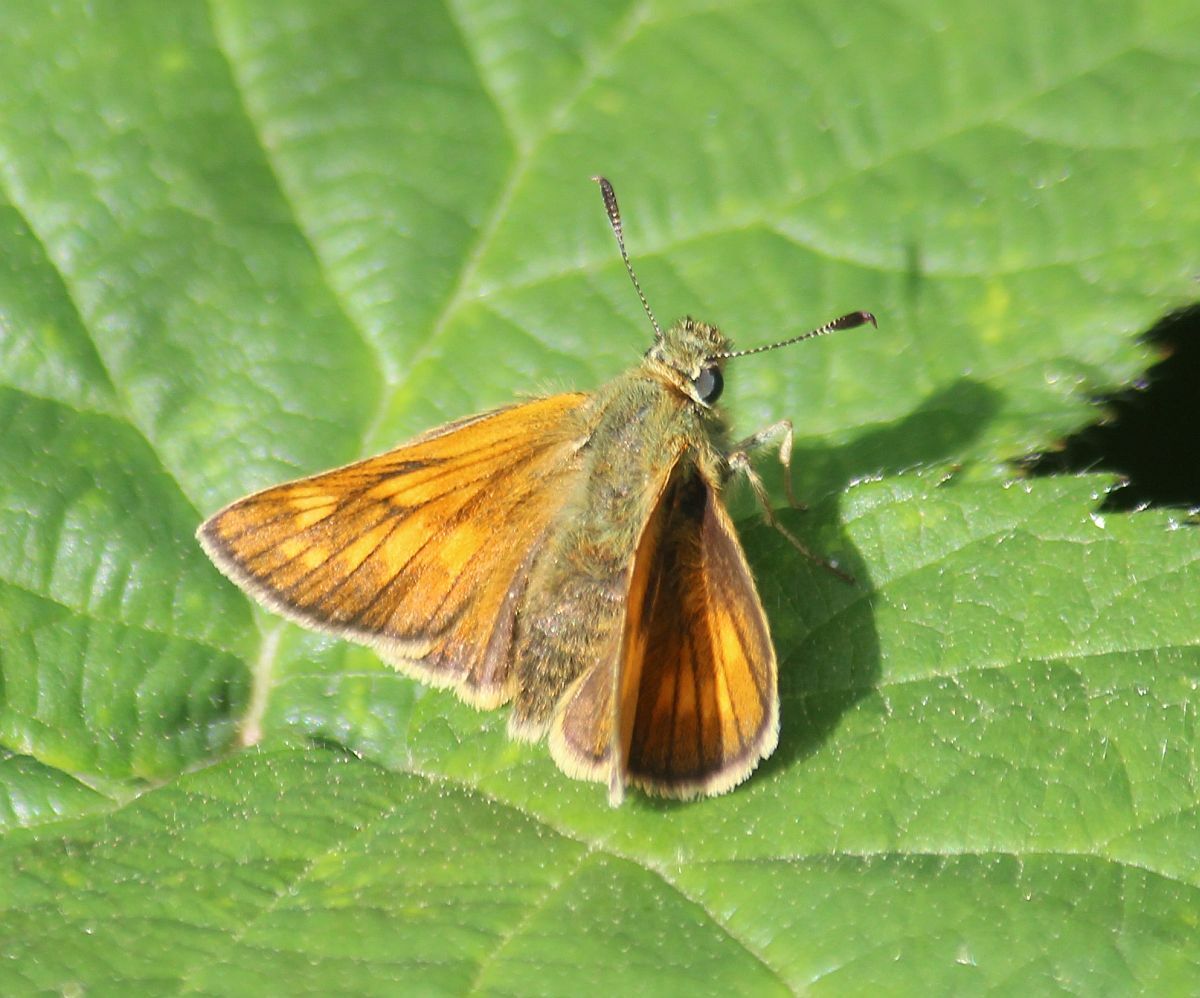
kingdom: Animalia
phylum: Arthropoda
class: Insecta
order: Lepidoptera
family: Hesperiidae
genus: Ochlodes
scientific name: Ochlodes venata
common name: Large skipper
